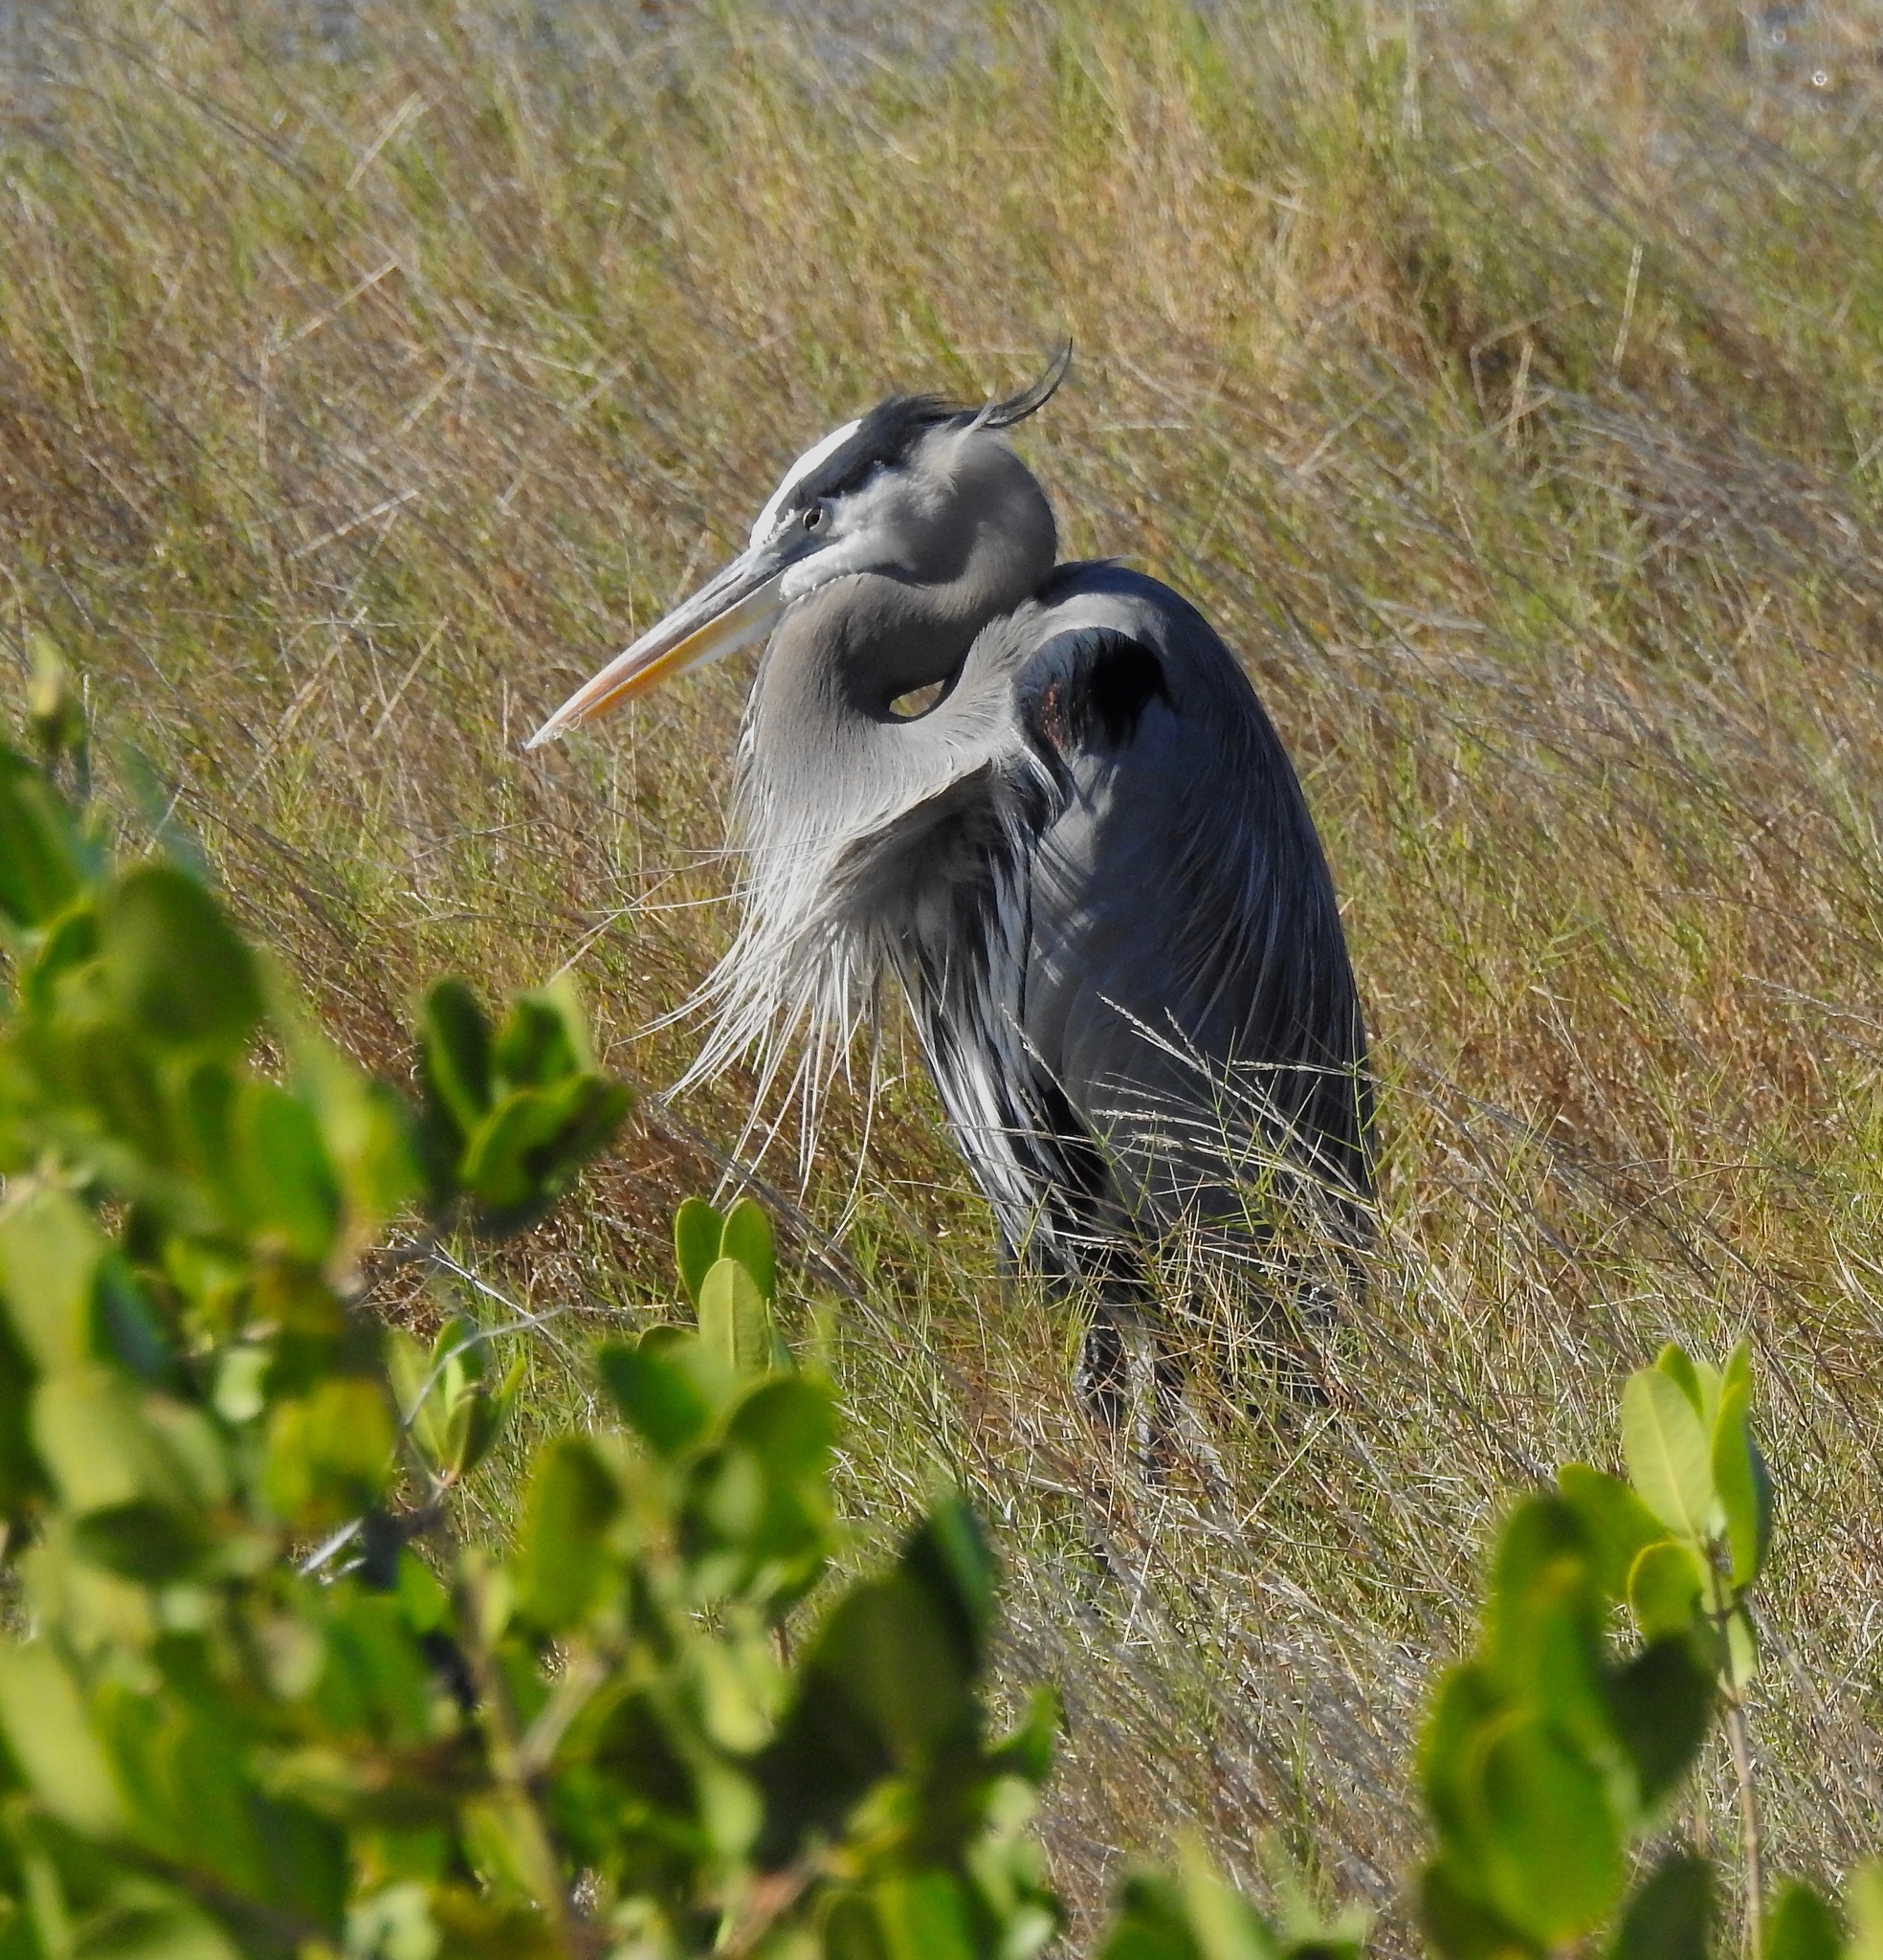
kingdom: Animalia
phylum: Chordata
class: Aves
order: Pelecaniformes
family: Ardeidae
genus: Ardea
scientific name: Ardea herodias
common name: Great blue heron
